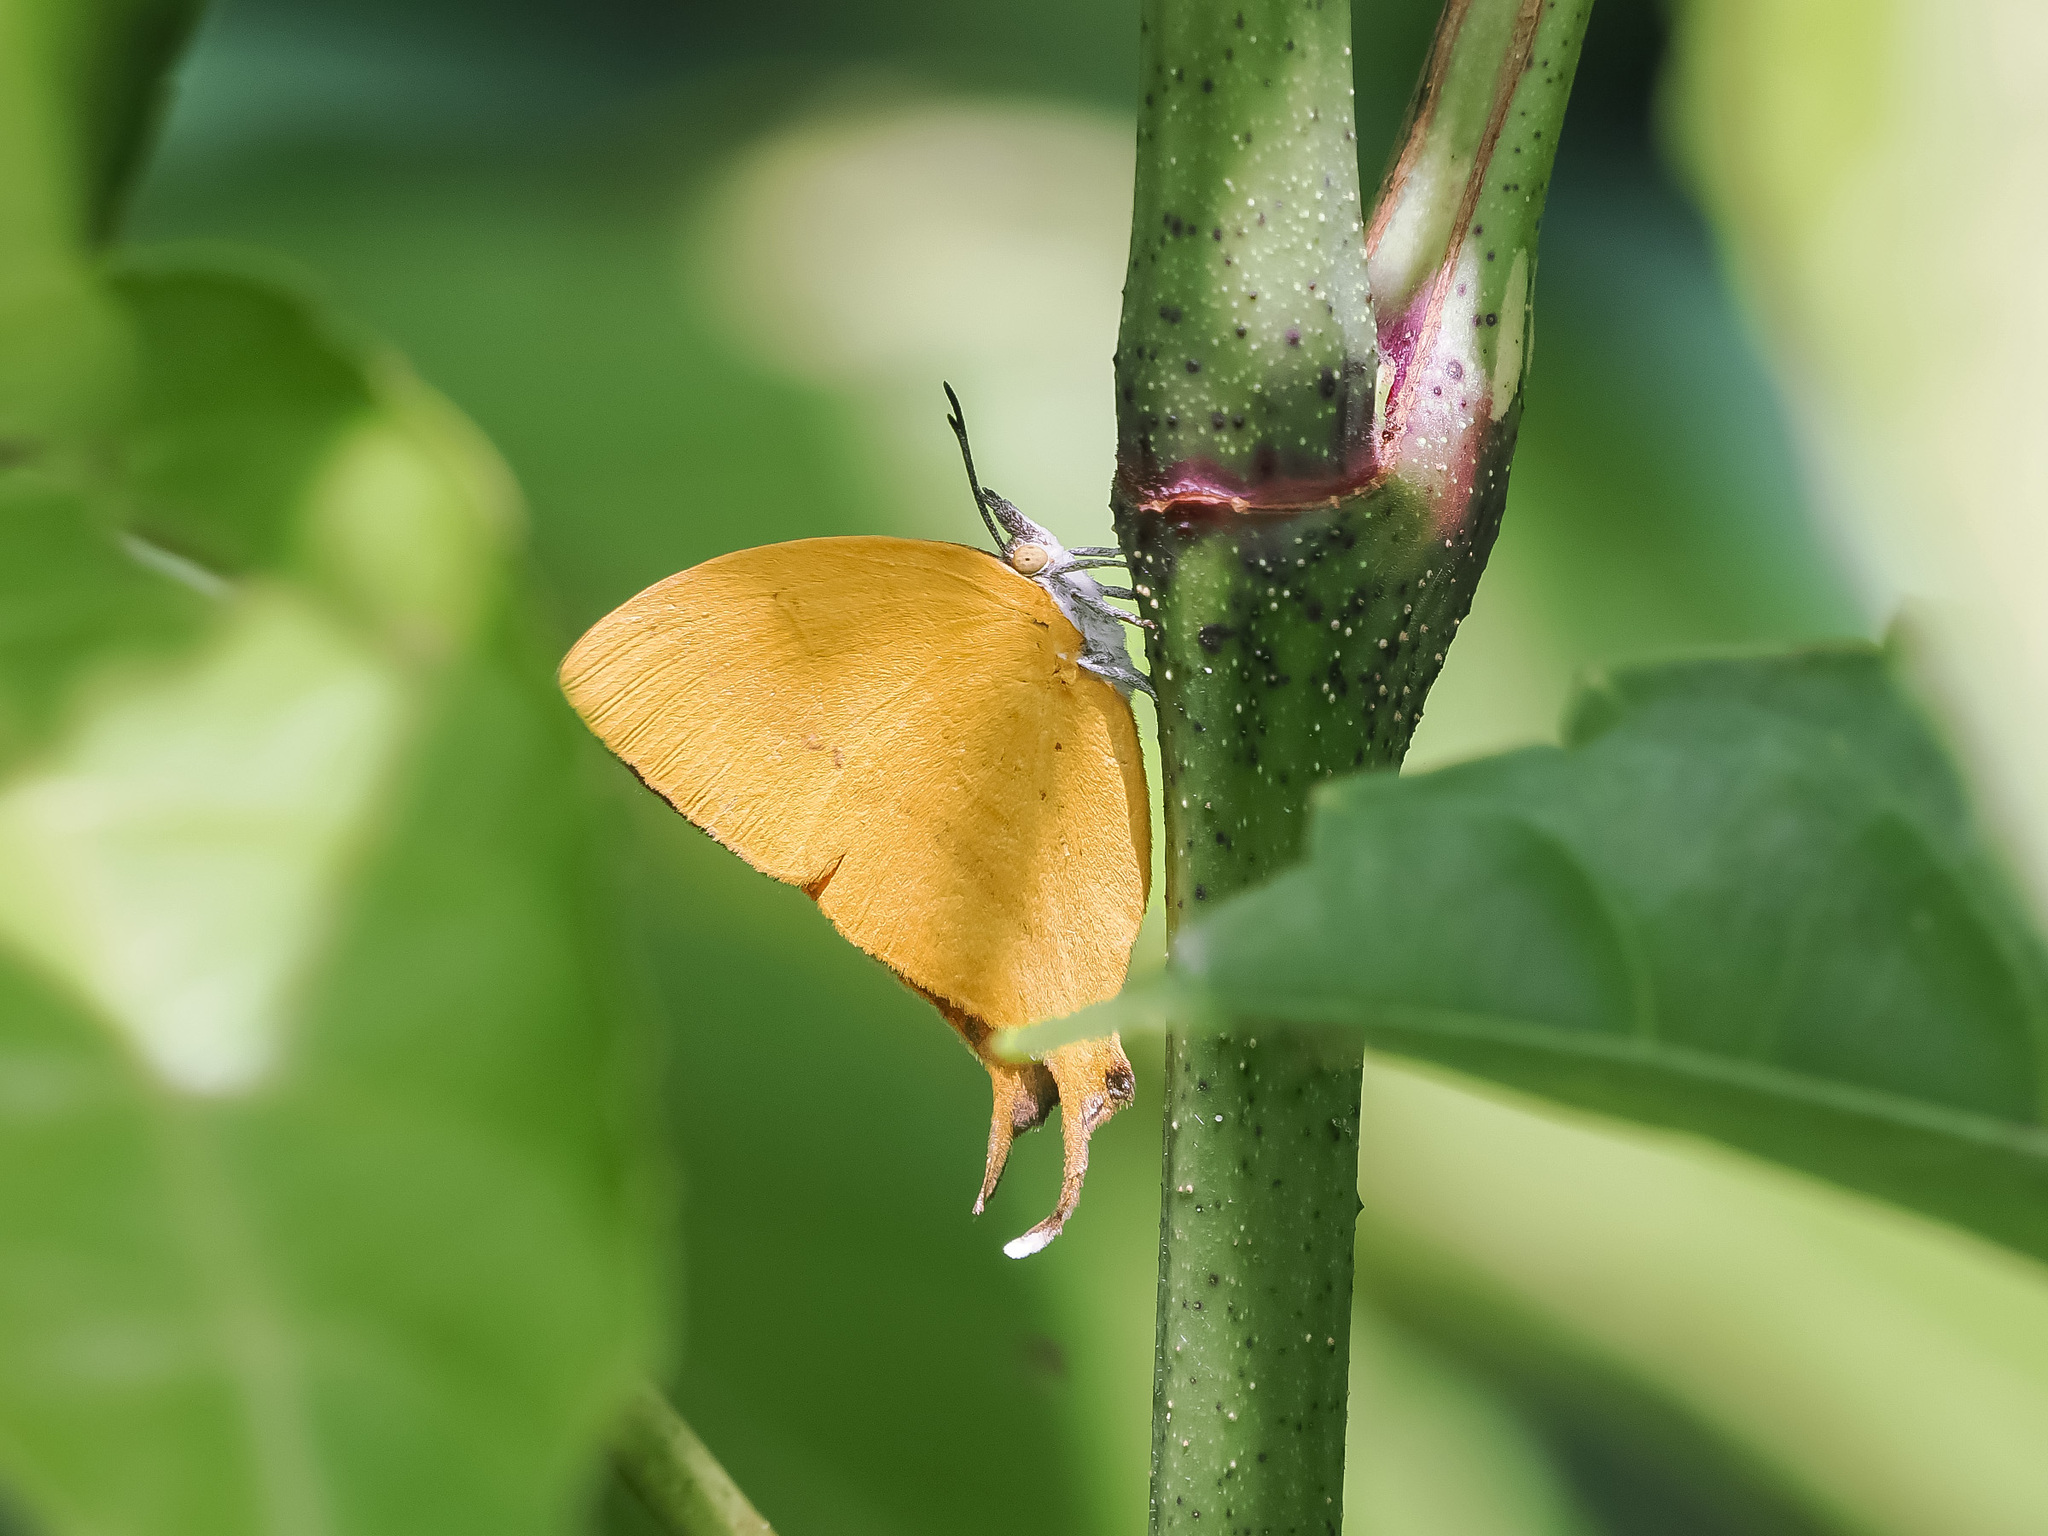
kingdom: Animalia
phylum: Arthropoda
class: Insecta
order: Lepidoptera
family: Lycaenidae
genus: Loxura
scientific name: Loxura atymnus
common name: Common yamfly
